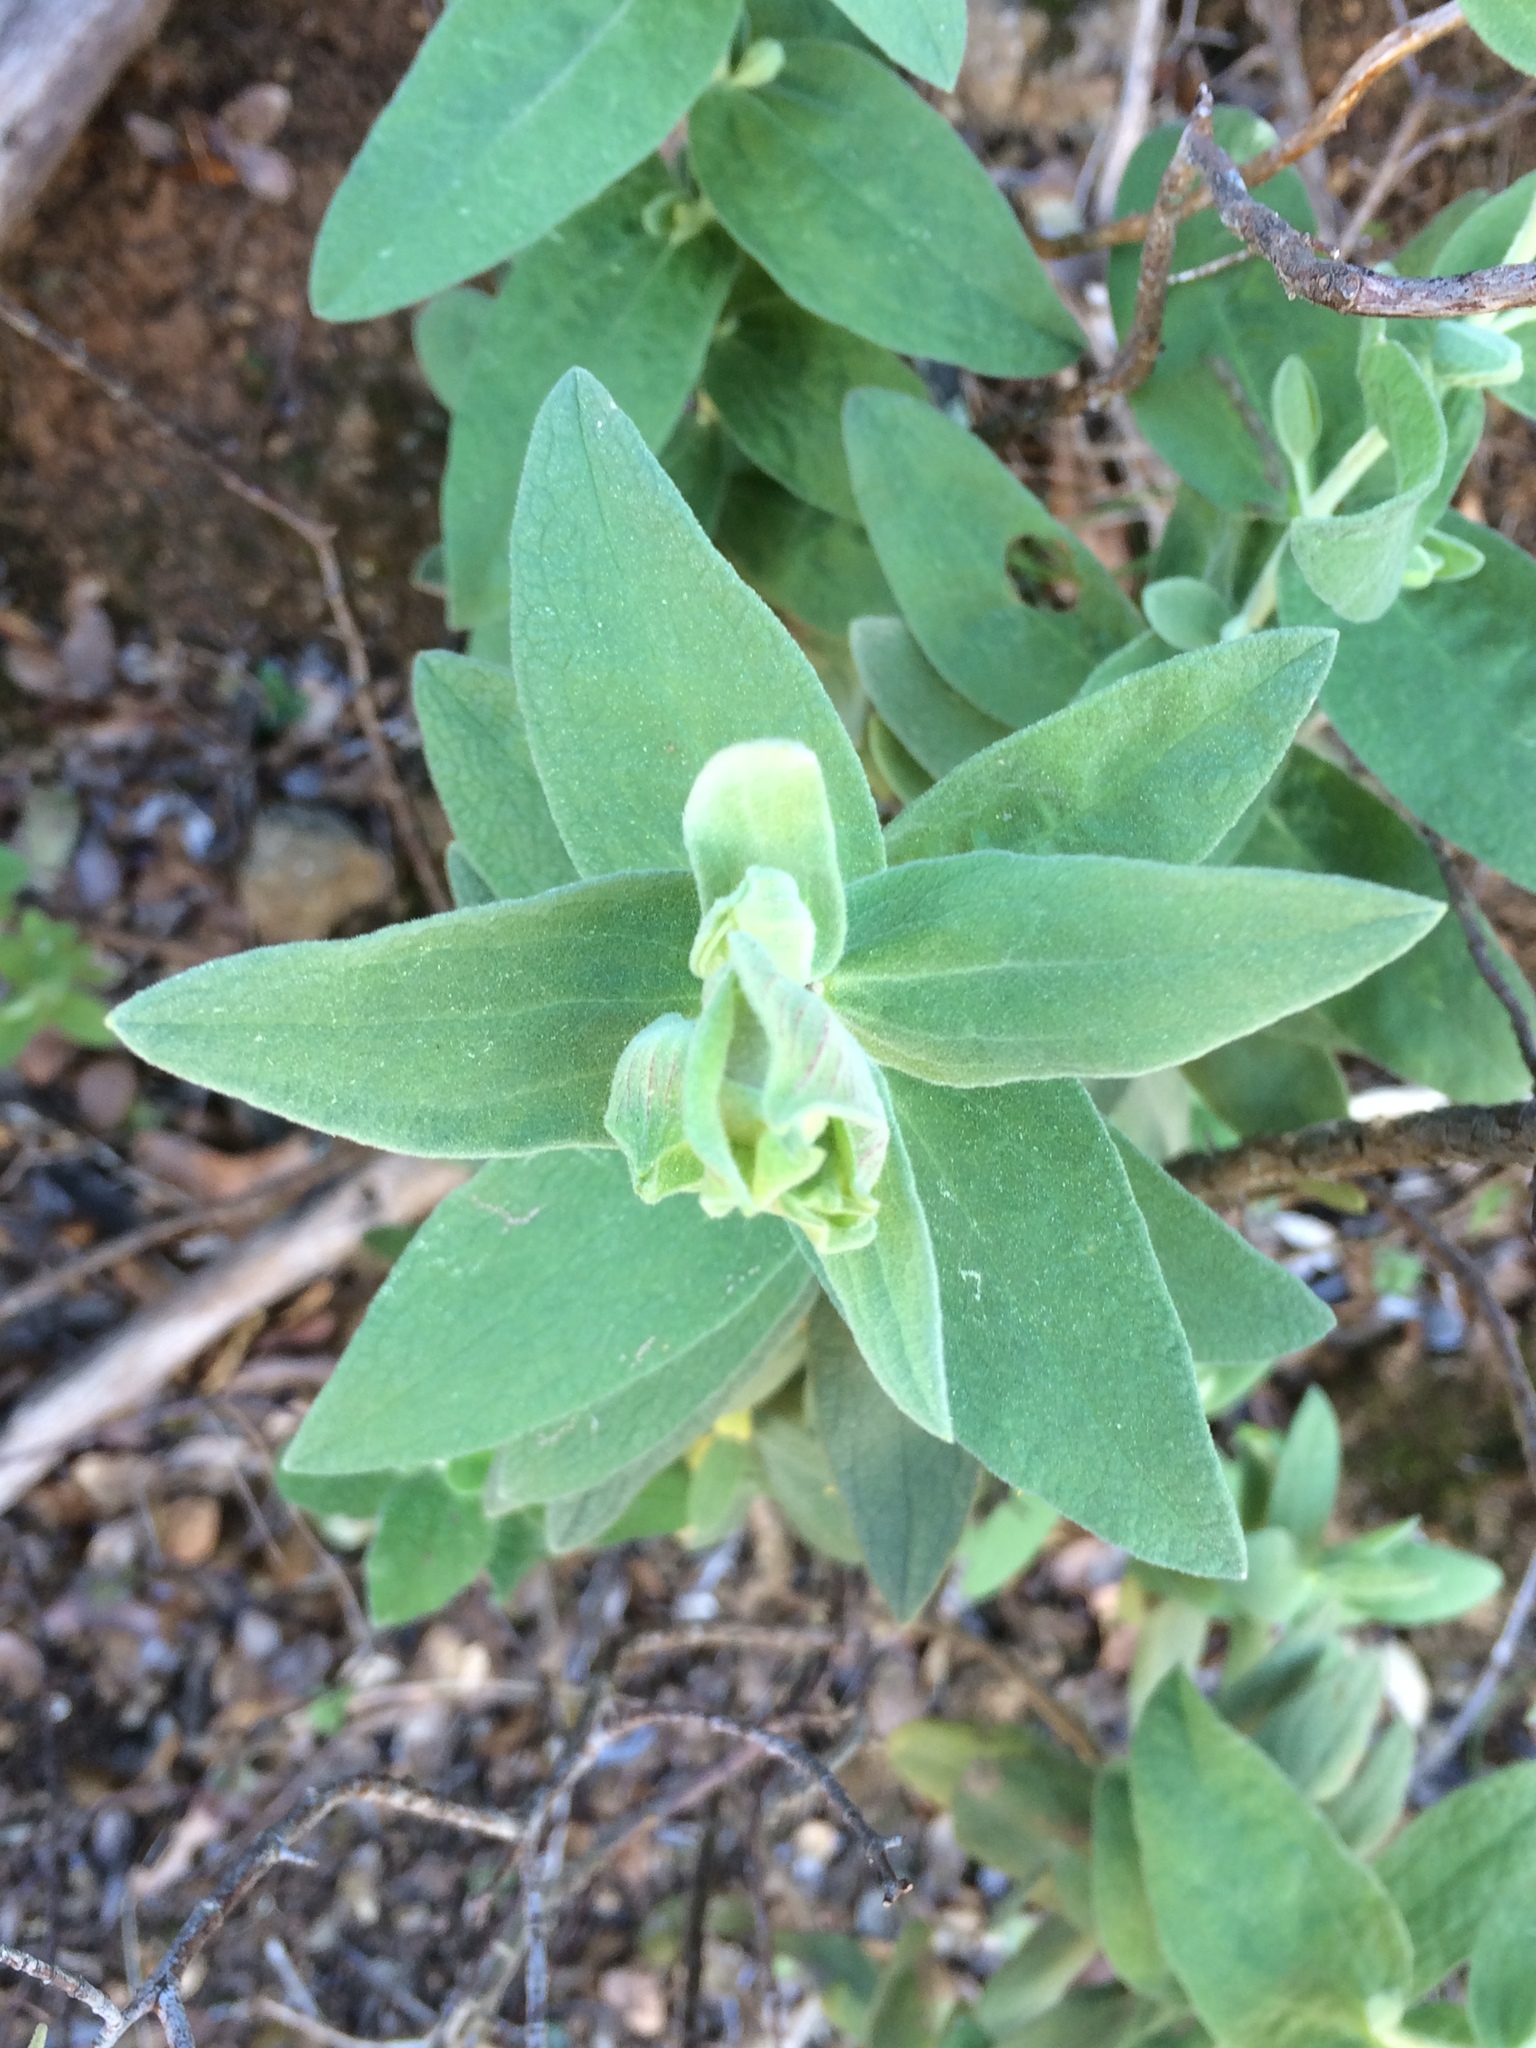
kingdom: Plantae
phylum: Tracheophyta
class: Magnoliopsida
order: Malvales
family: Cistaceae
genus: Cistus
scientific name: Cistus albidus
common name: White-leaf rock-rose
